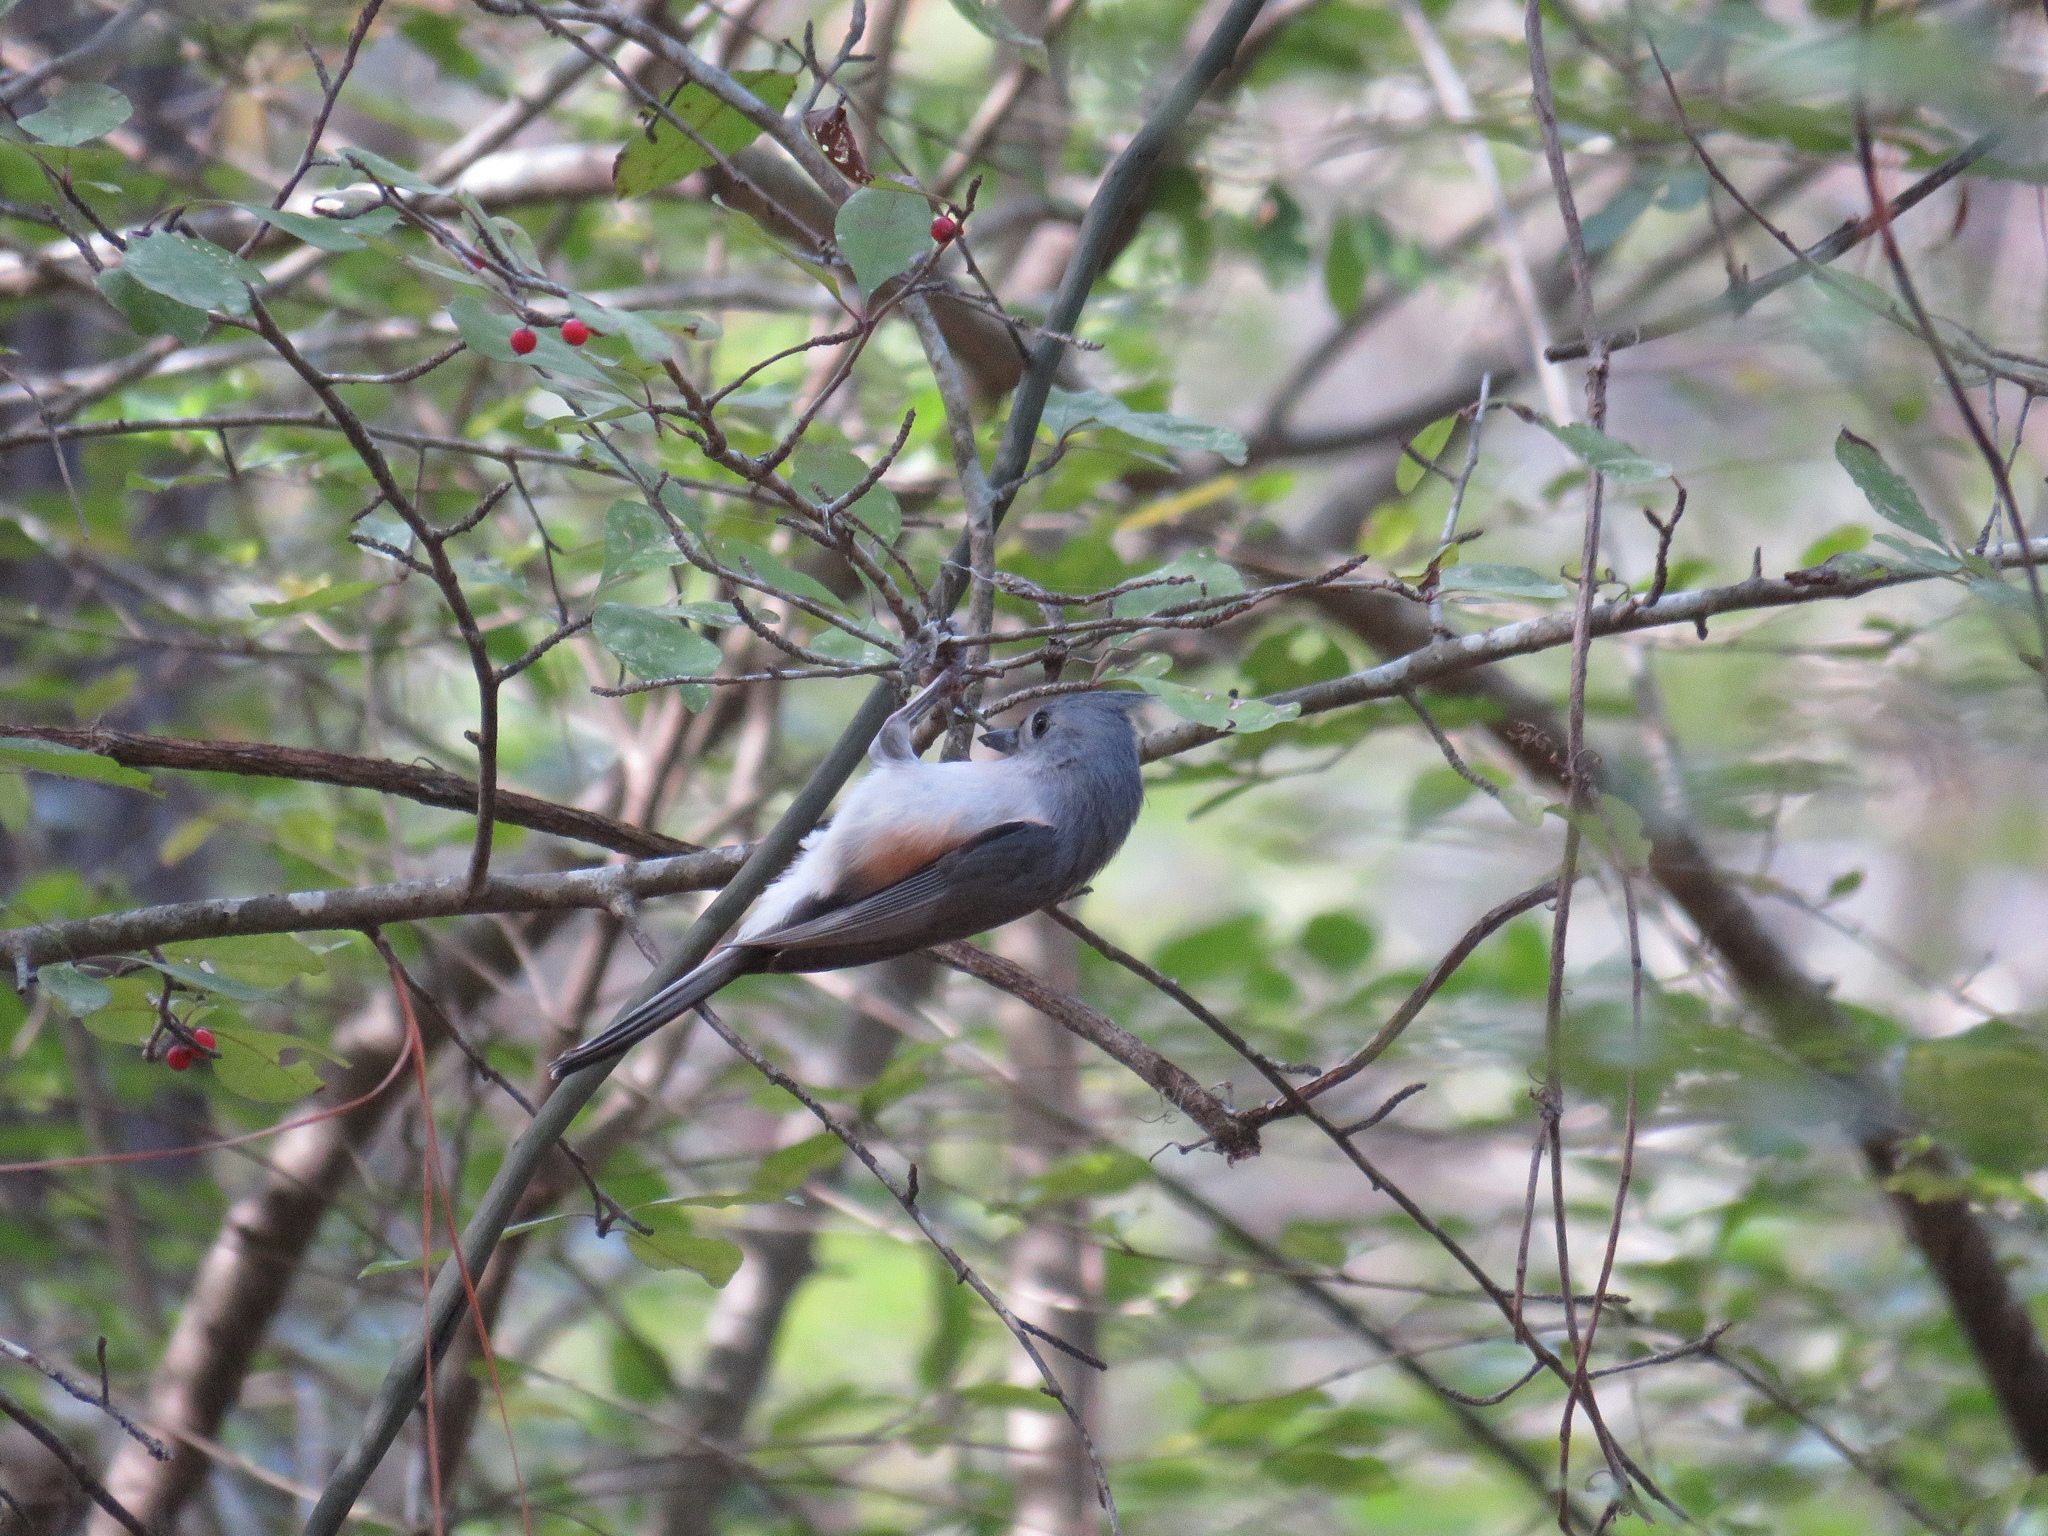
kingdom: Animalia
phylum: Chordata
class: Aves
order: Passeriformes
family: Paridae
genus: Baeolophus
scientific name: Baeolophus bicolor
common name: Tufted titmouse
